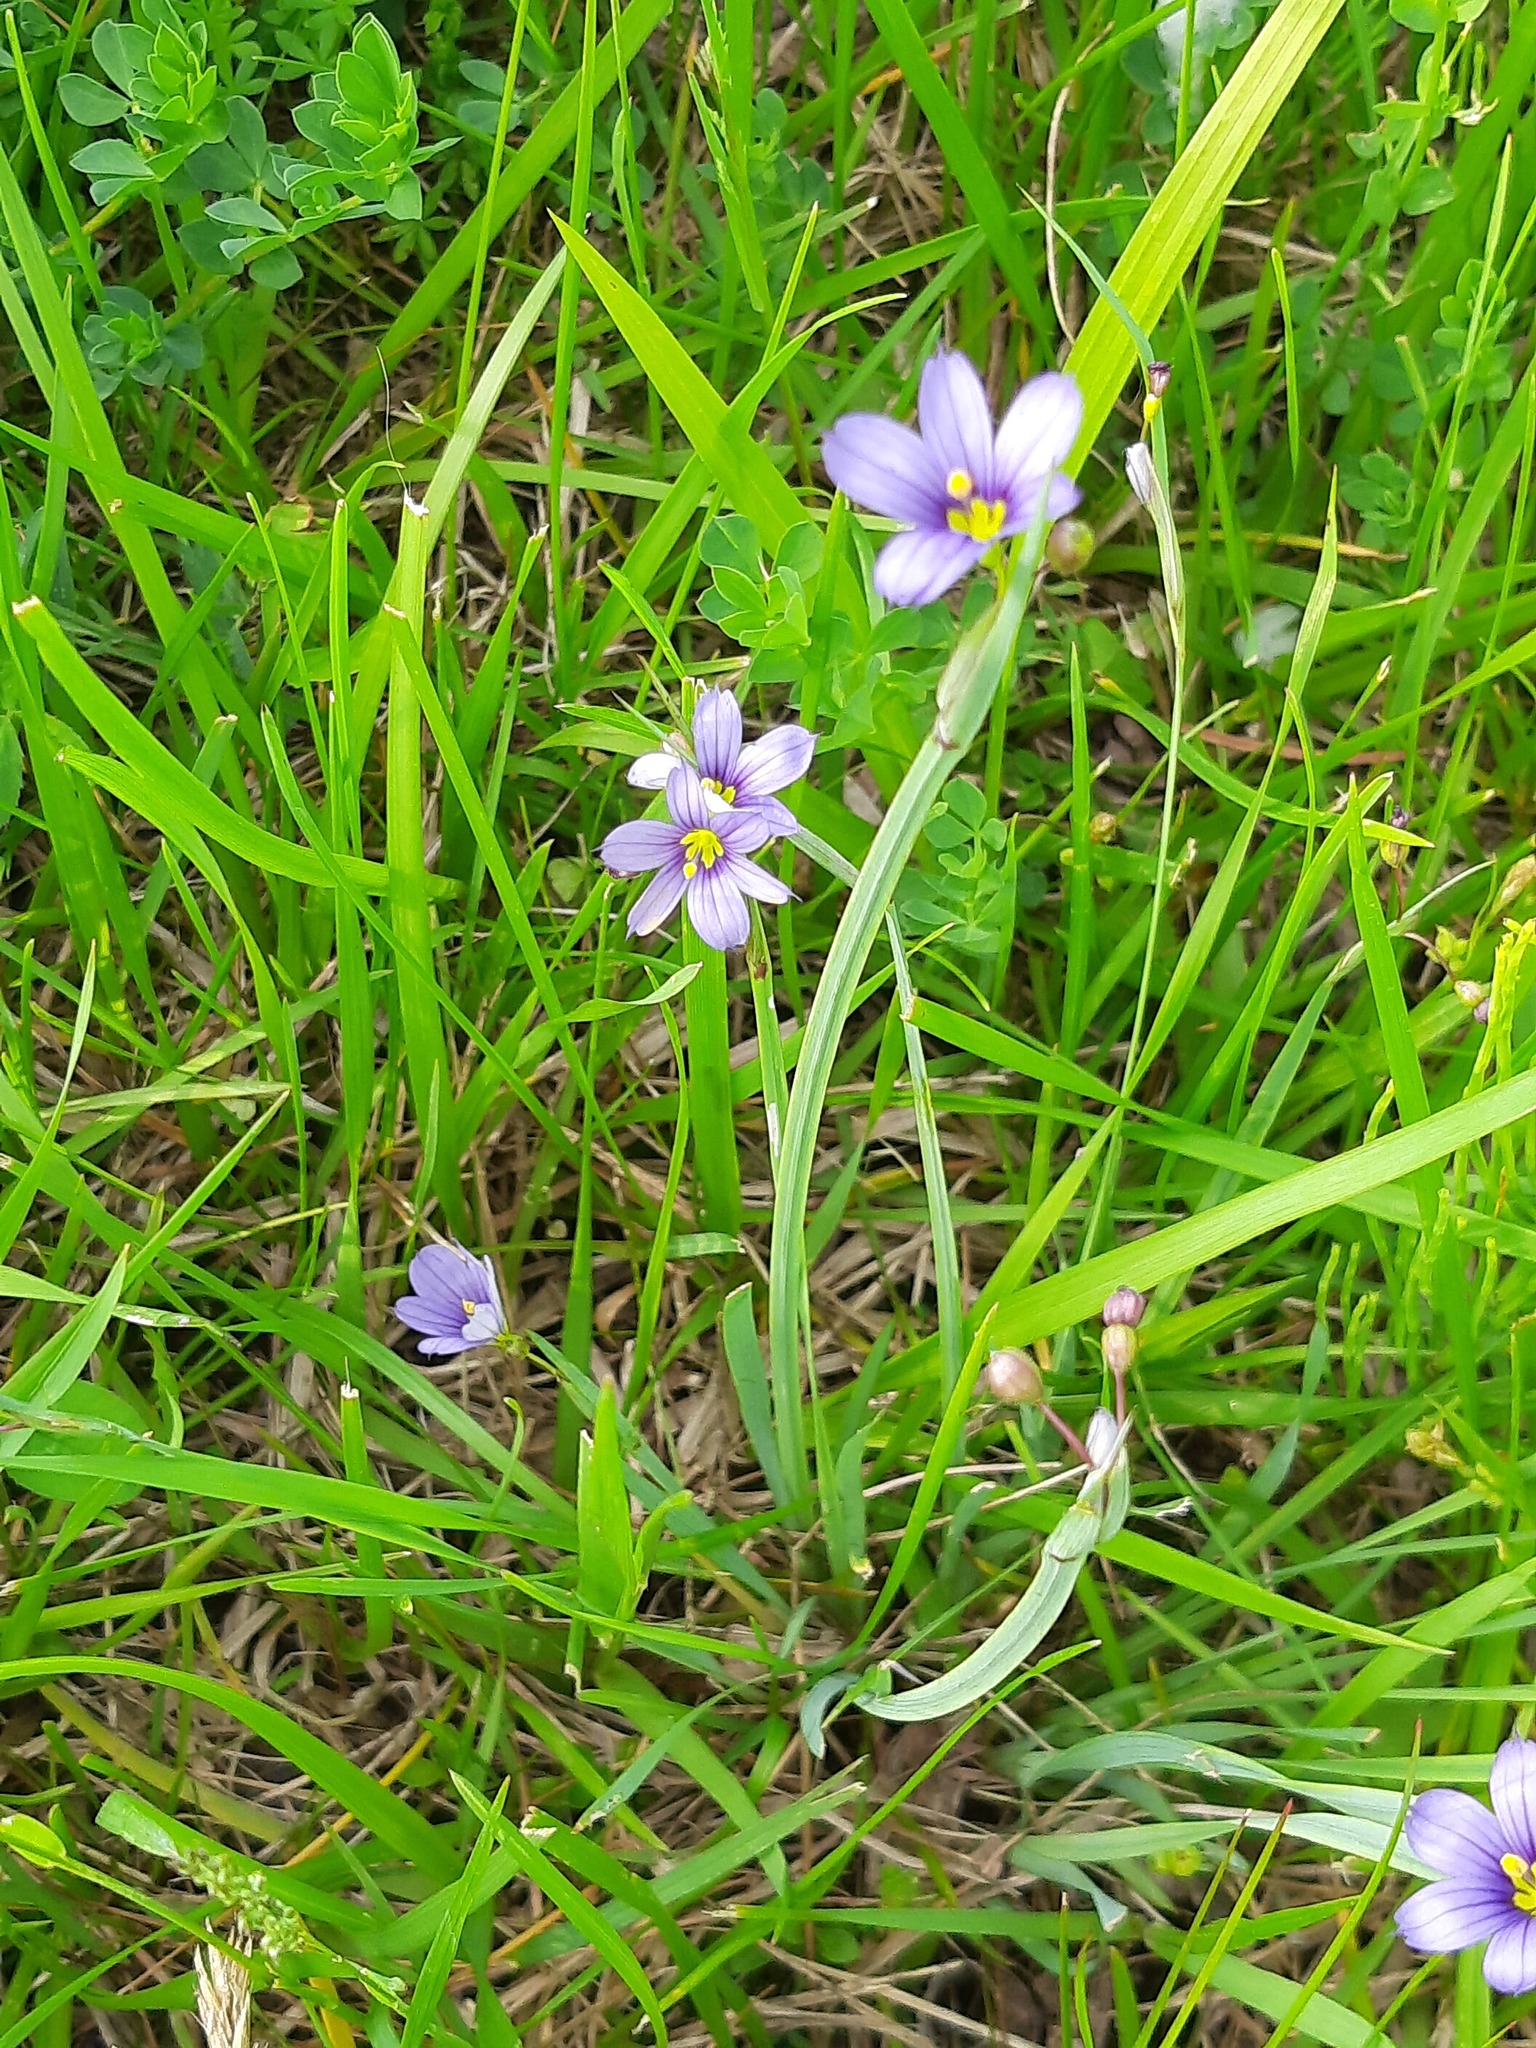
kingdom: Plantae
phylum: Tracheophyta
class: Liliopsida
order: Asparagales
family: Iridaceae
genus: Sisyrinchium
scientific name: Sisyrinchium montanum
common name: American blue-eyed-grass
